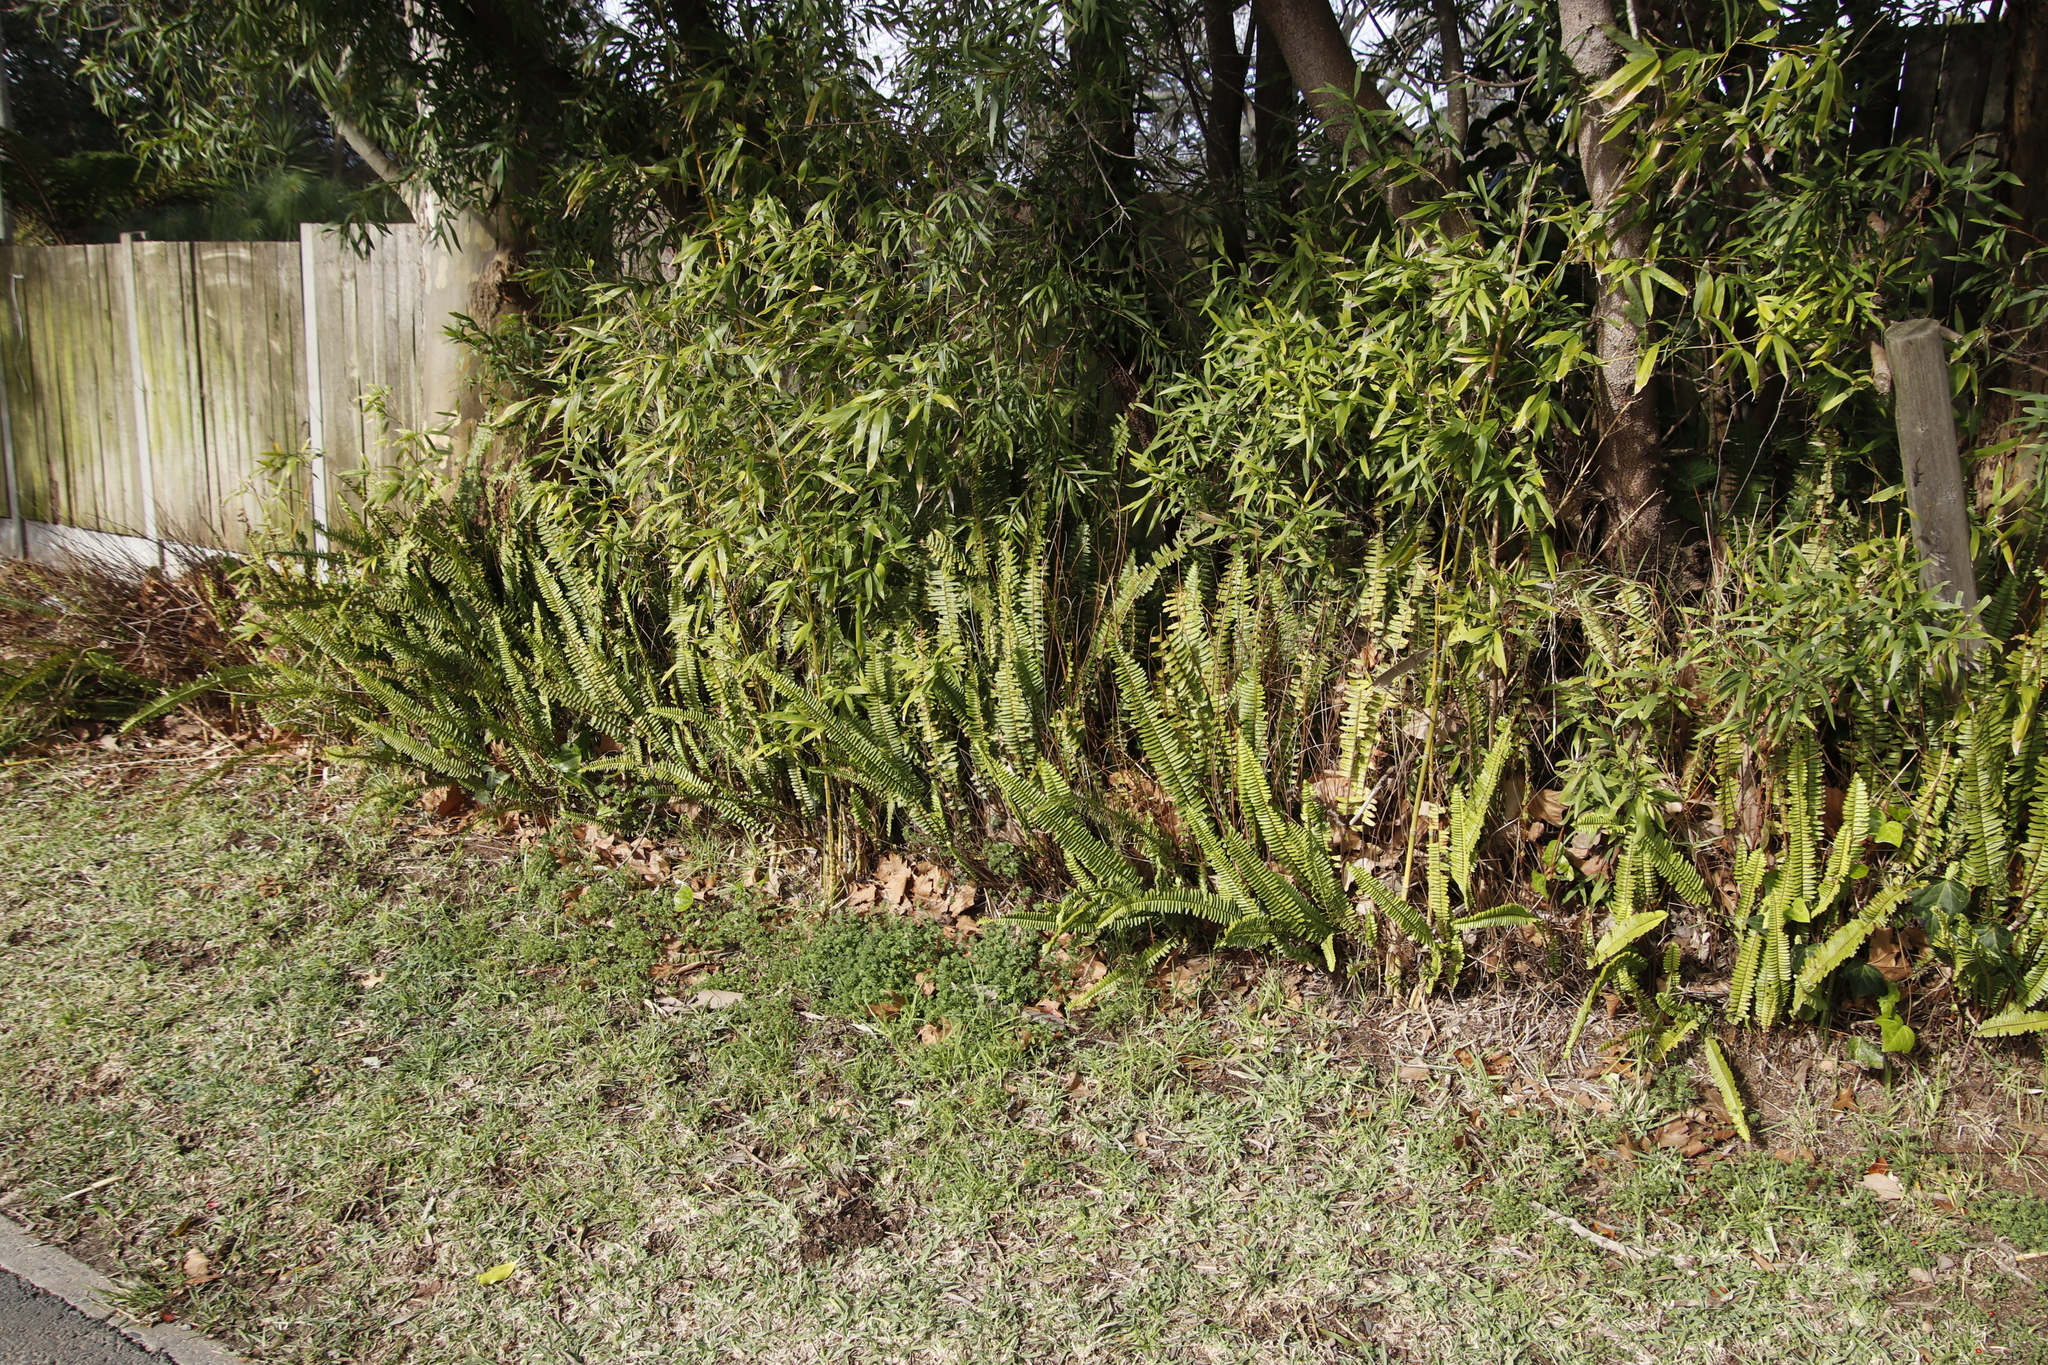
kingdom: Plantae
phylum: Tracheophyta
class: Polypodiopsida
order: Polypodiales
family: Nephrolepidaceae
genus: Nephrolepis
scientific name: Nephrolepis cordifolia
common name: Narrow swordfern
